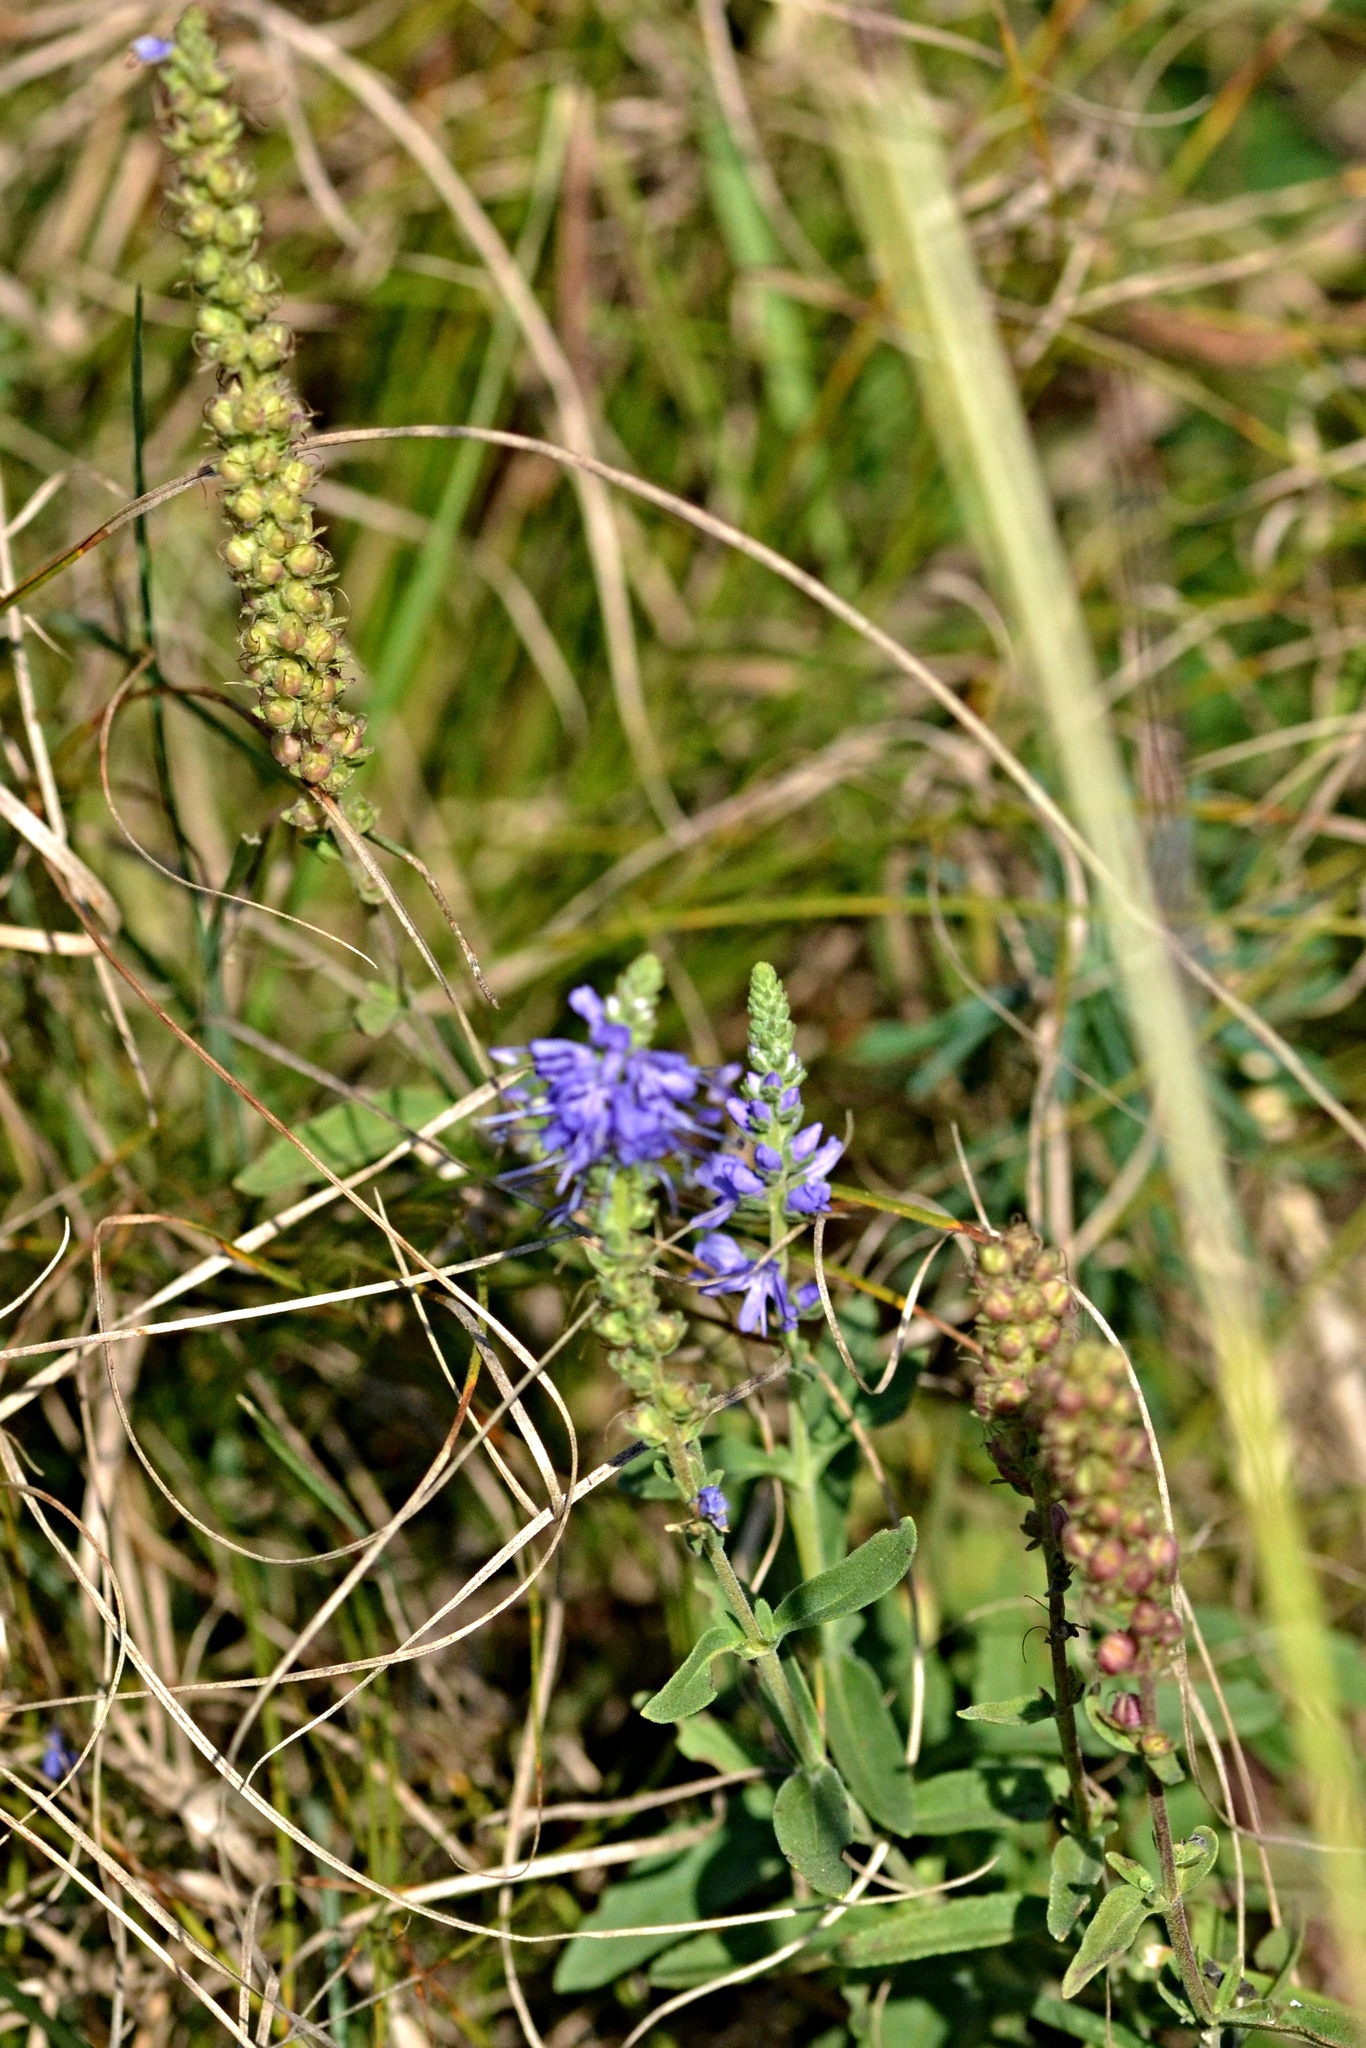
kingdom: Plantae
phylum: Tracheophyta
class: Magnoliopsida
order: Lamiales
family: Plantaginaceae
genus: Veronica
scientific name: Veronica spicata
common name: Spiked speedwell
